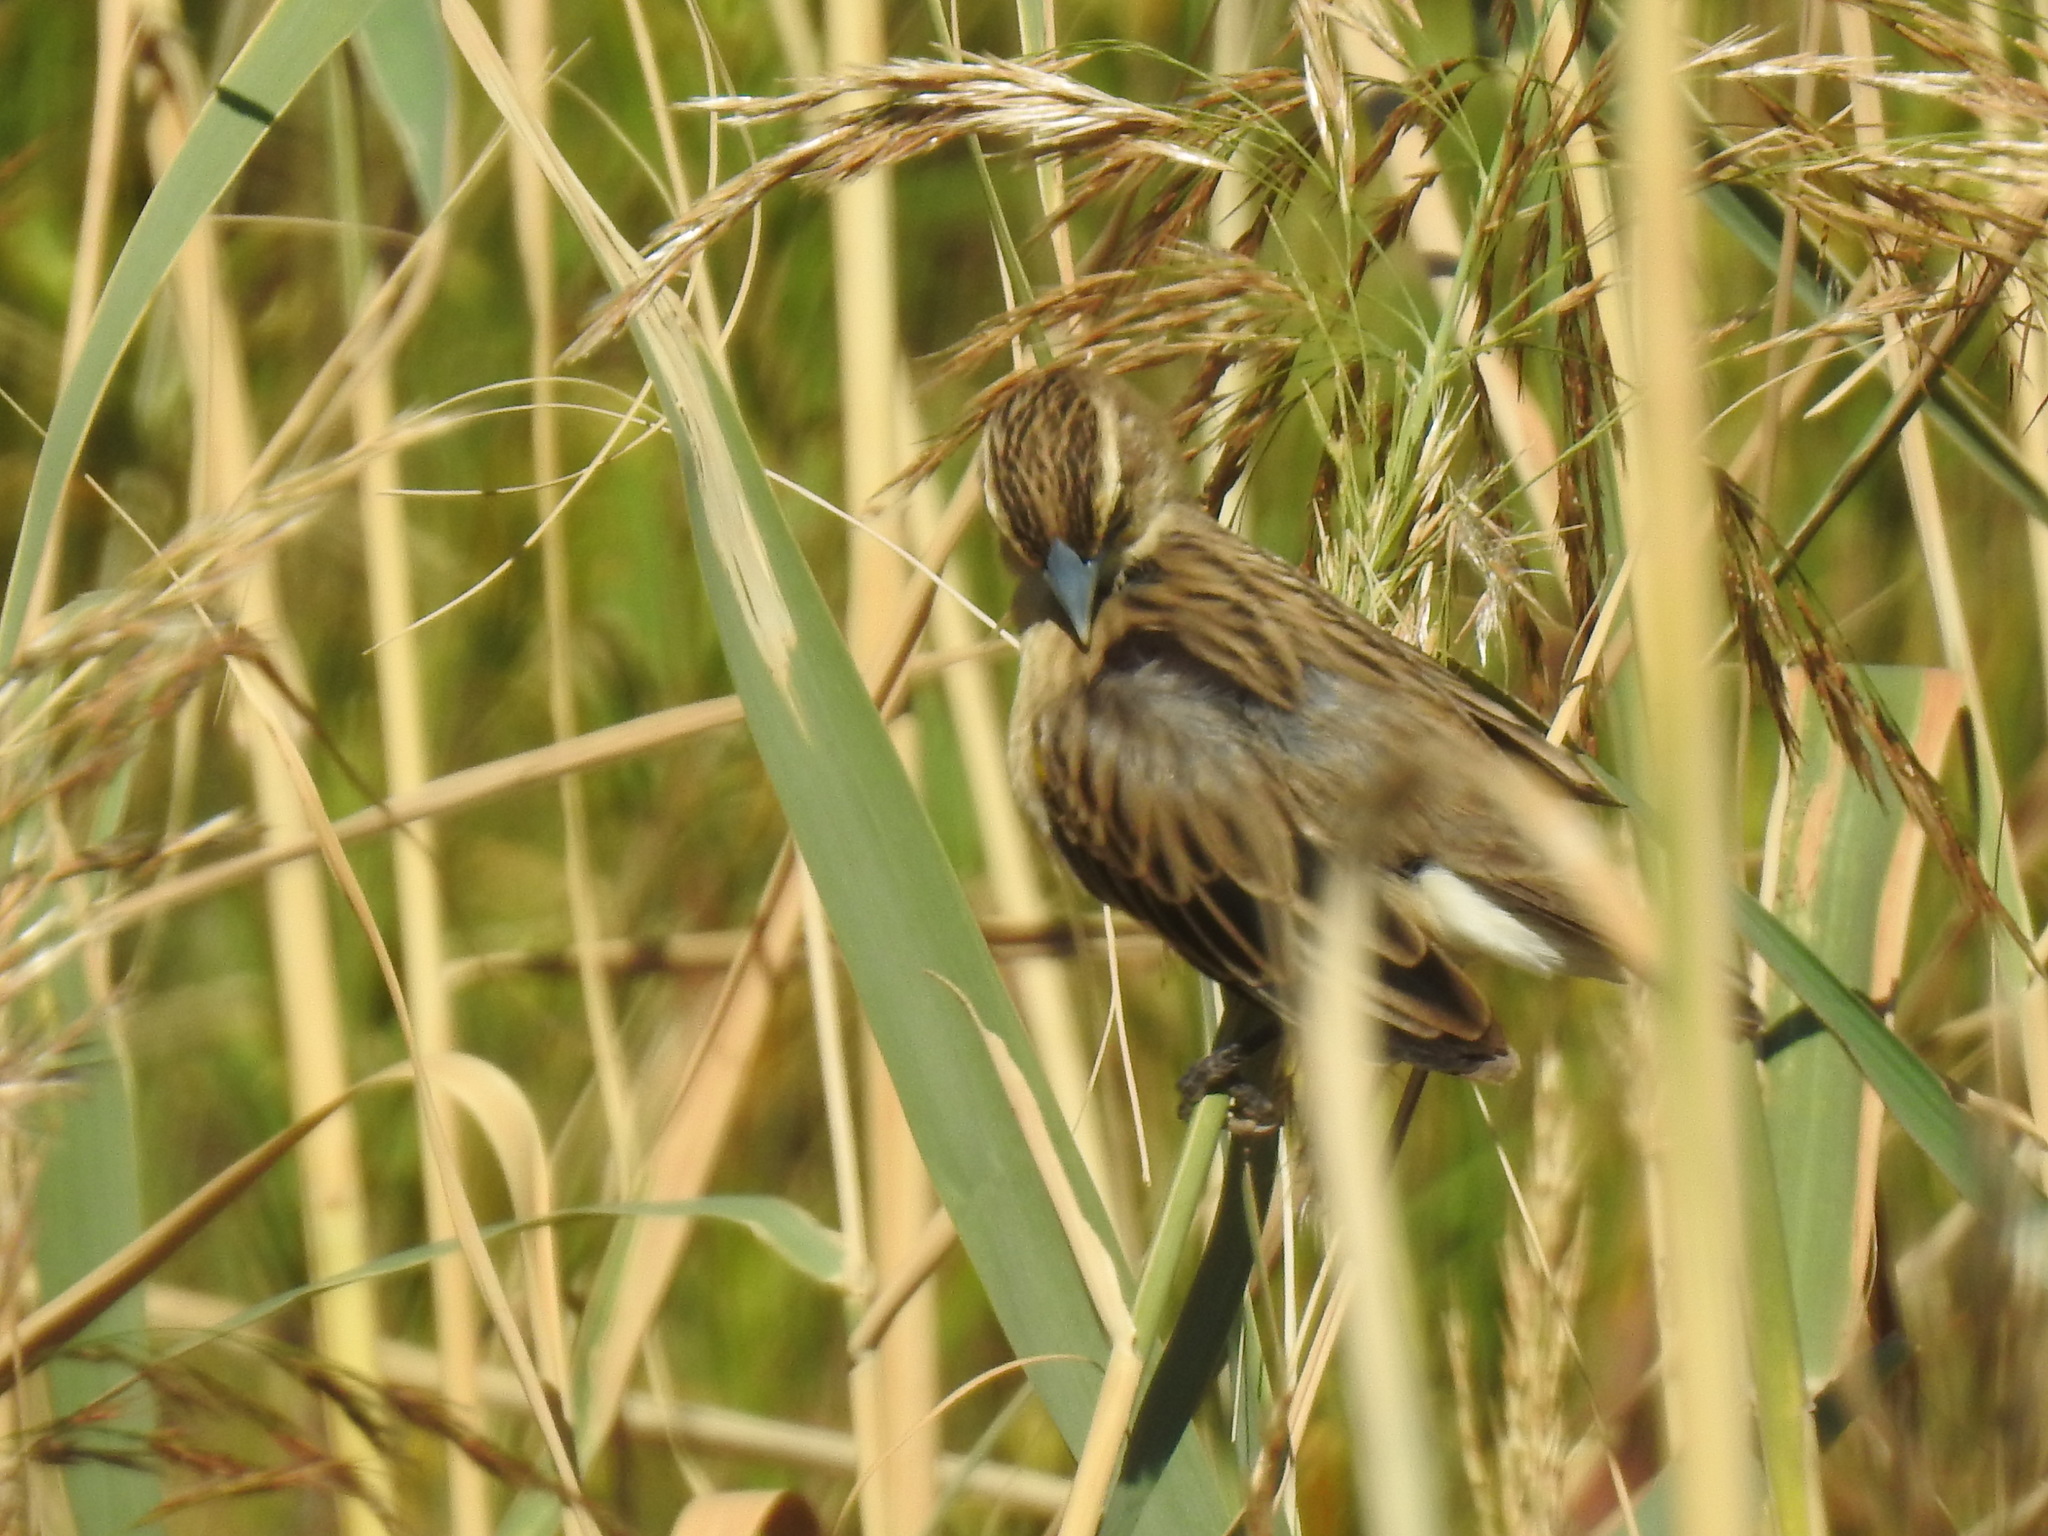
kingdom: Animalia
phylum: Chordata
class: Aves
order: Passeriformes
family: Ploceidae
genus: Euplectes
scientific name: Euplectes albonotatus
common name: White-winged widowbird
